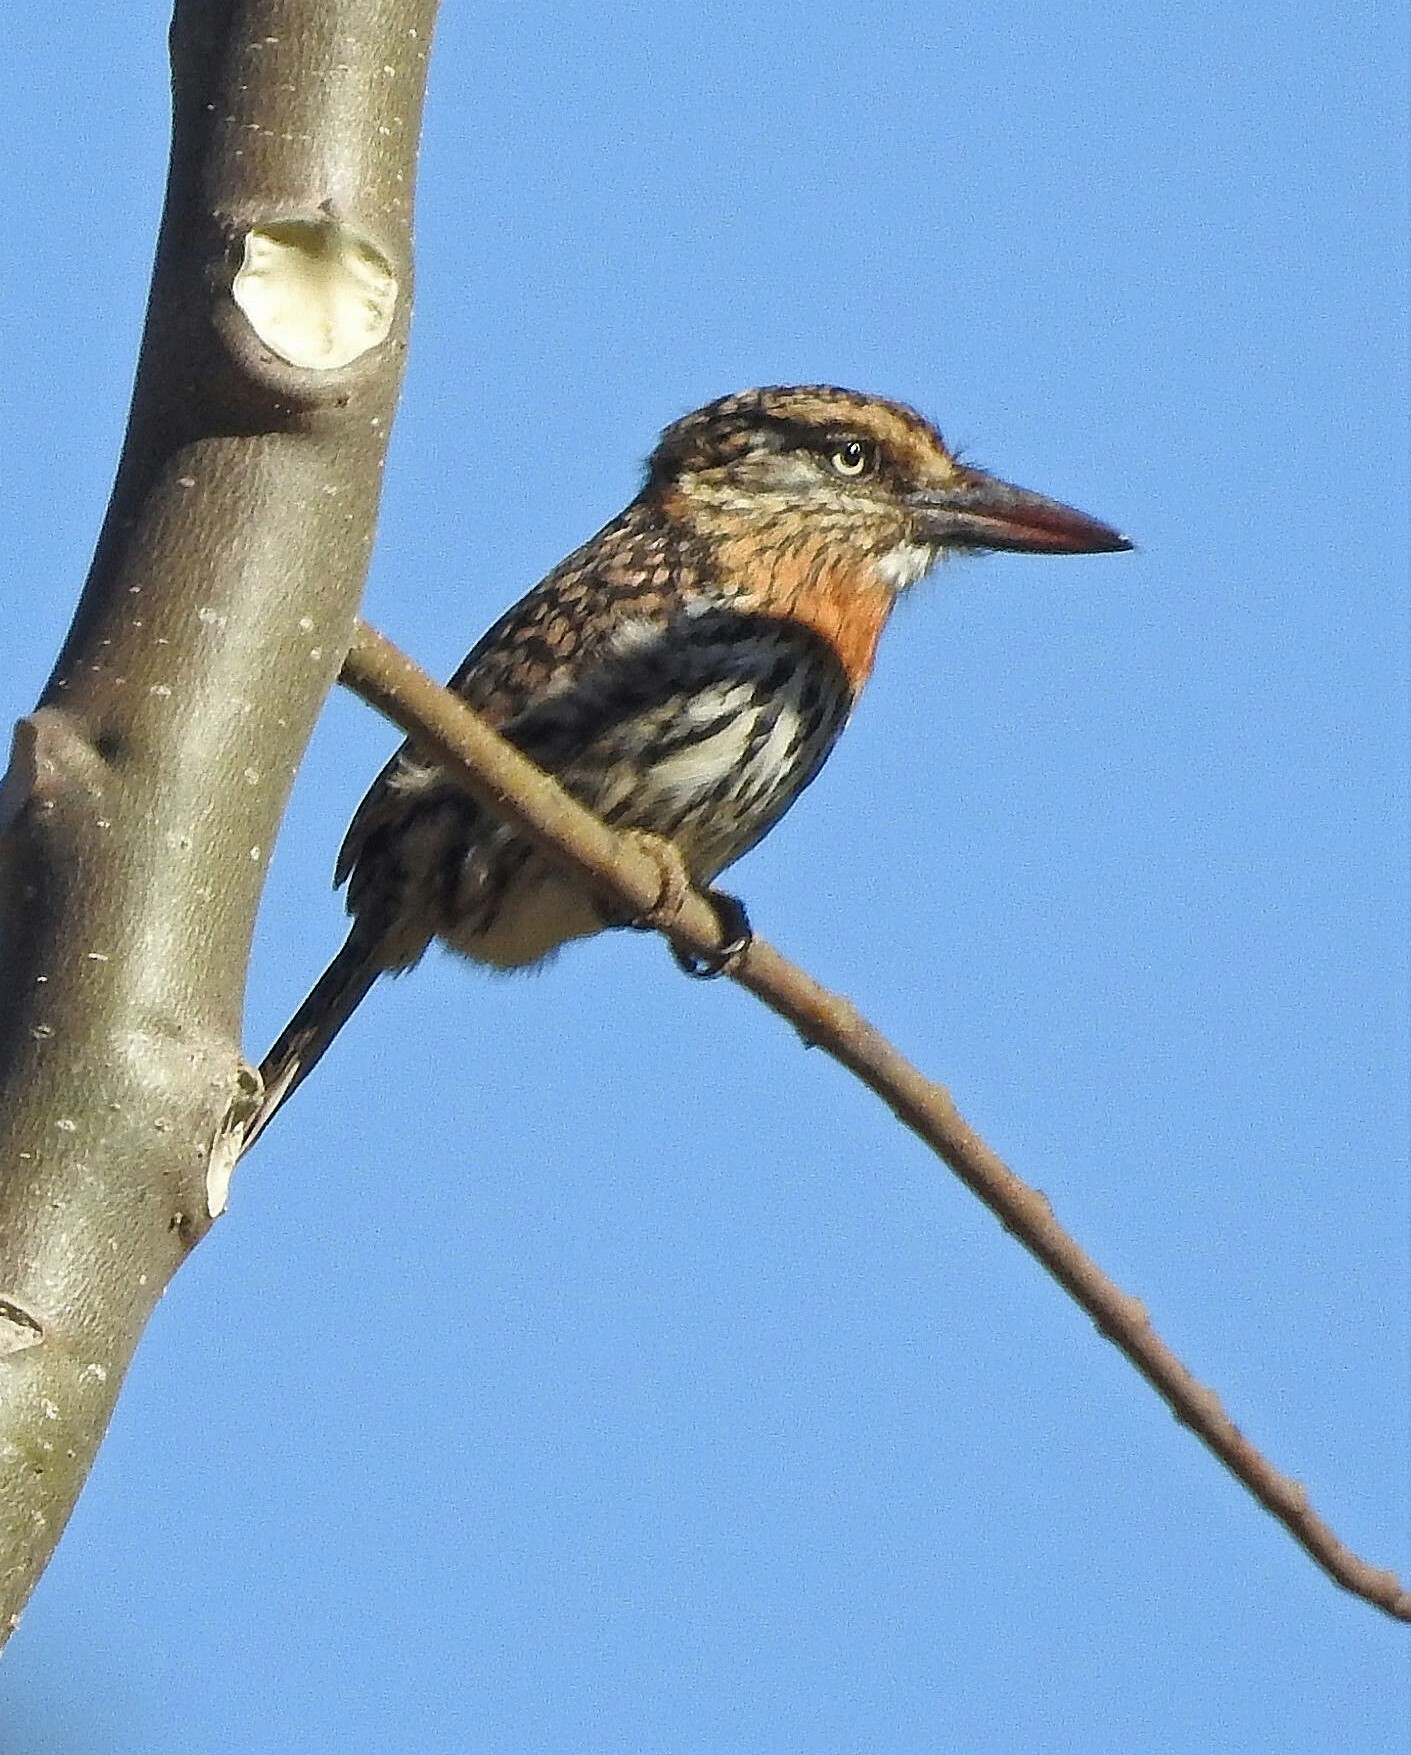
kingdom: Animalia
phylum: Chordata
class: Aves
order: Piciformes
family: Bucconidae
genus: Nystalus
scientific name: Nystalus maculatus
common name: Caatinga puffbird
